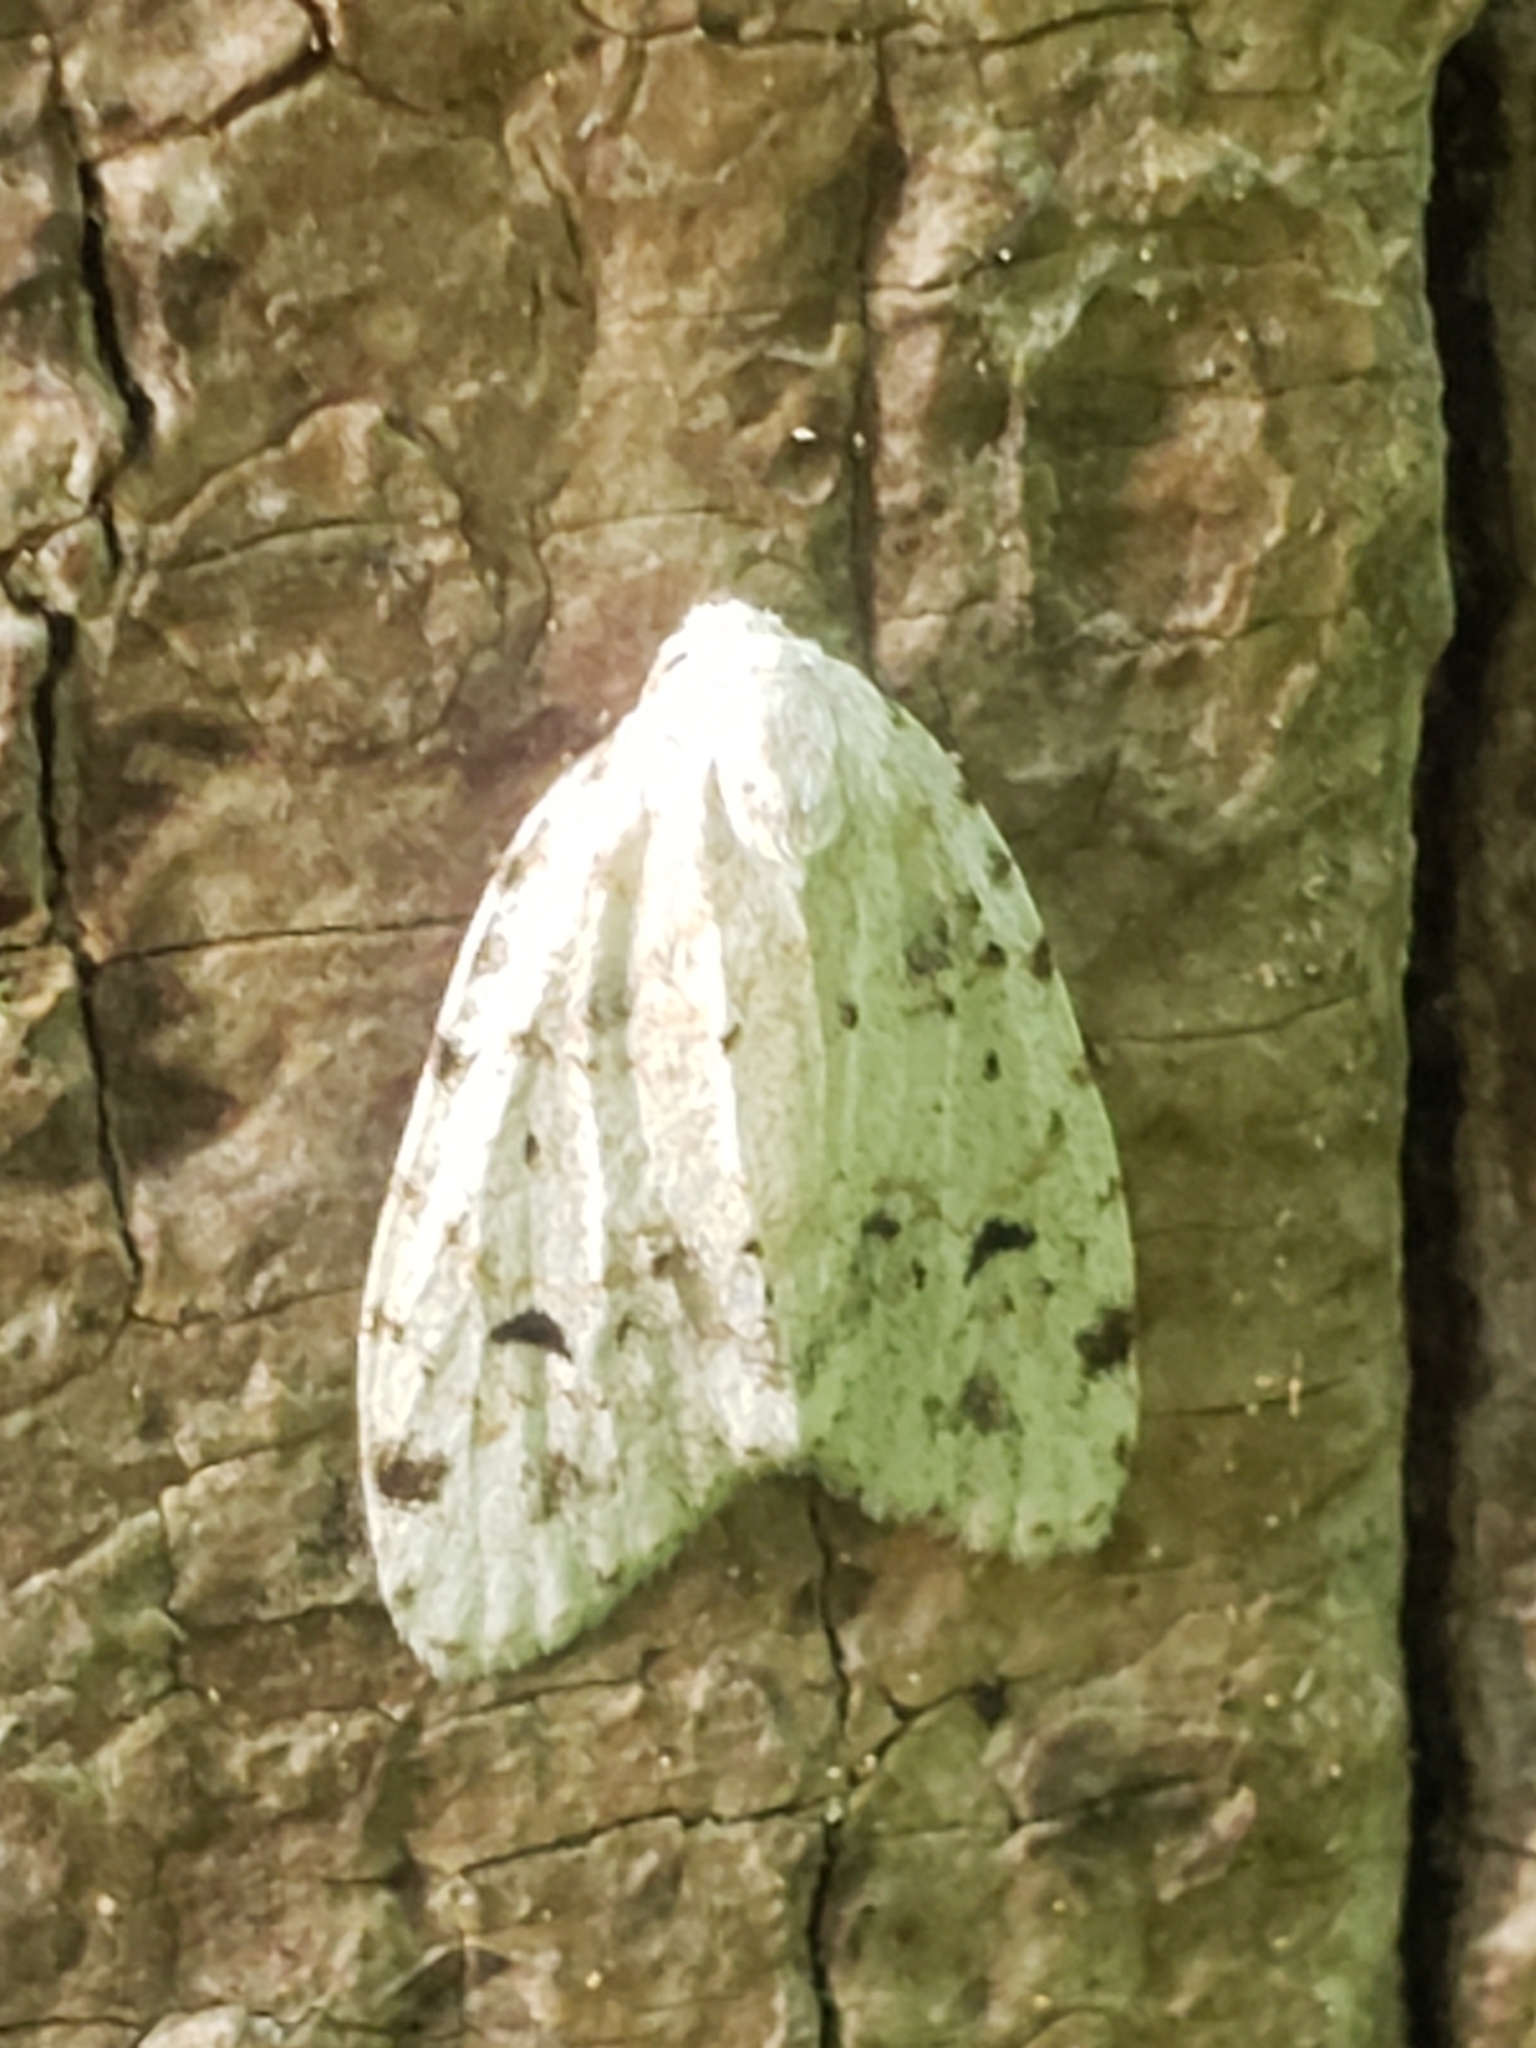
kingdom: Animalia
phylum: Arthropoda
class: Insecta
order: Lepidoptera
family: Erebidae
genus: Clemensia
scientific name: Clemensia albata
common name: Little white lichen moth
